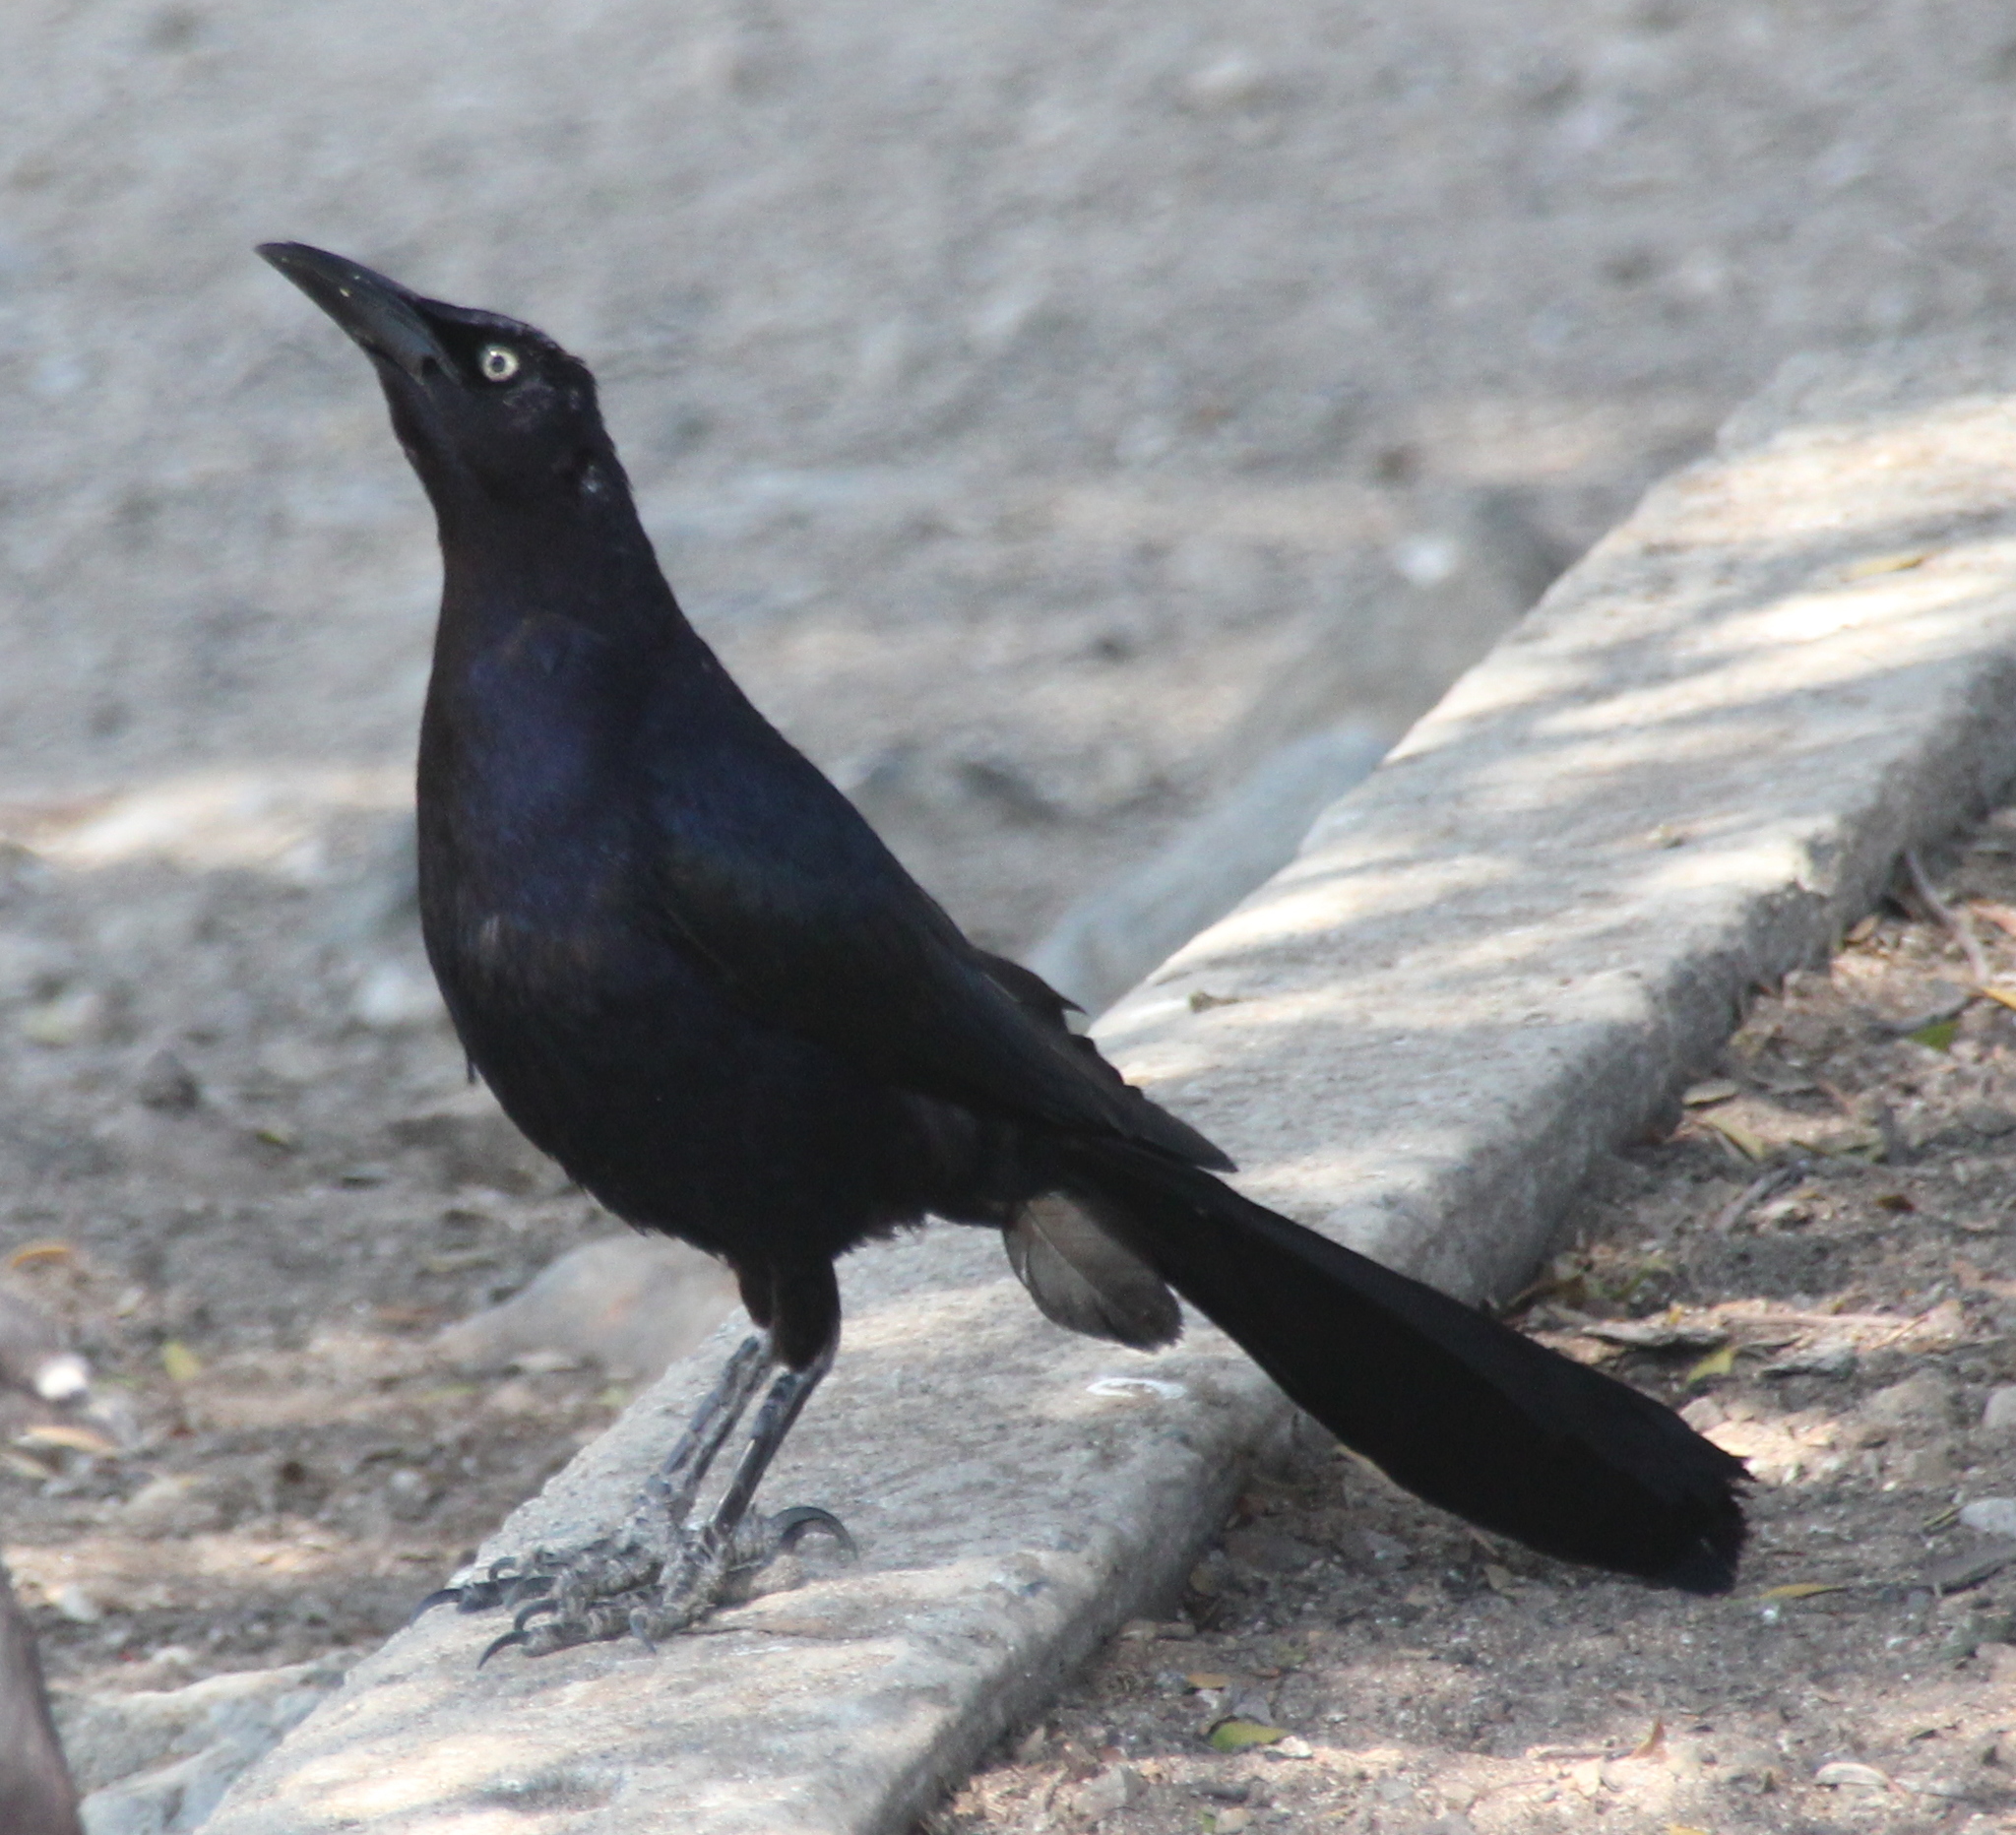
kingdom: Animalia
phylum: Chordata
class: Aves
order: Passeriformes
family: Icteridae
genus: Quiscalus
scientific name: Quiscalus mexicanus
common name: Great-tailed grackle
